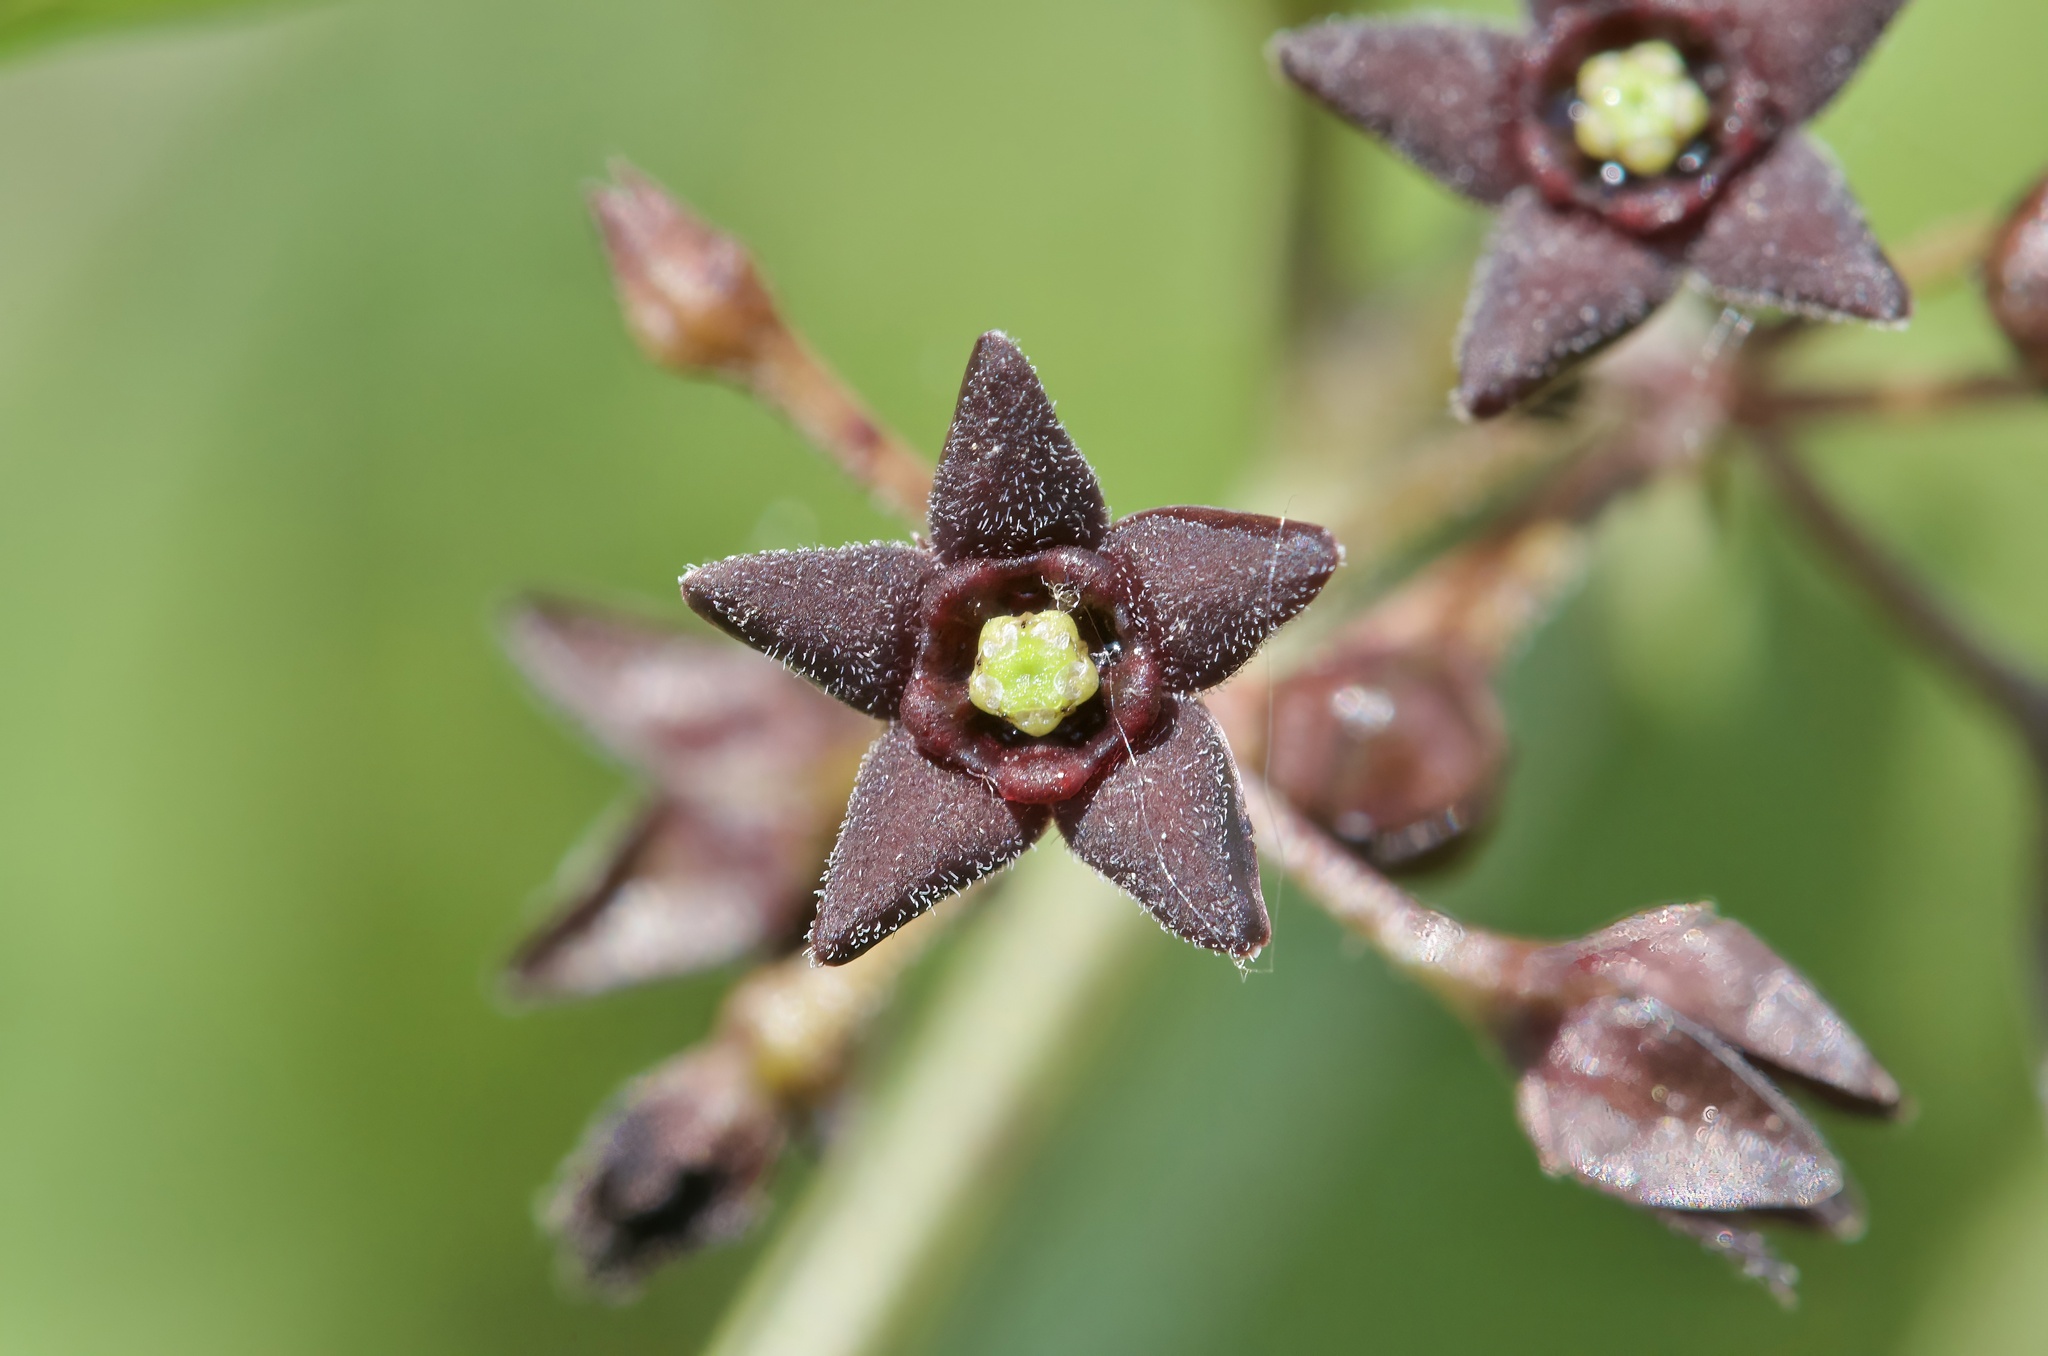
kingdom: Plantae
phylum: Tracheophyta
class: Magnoliopsida
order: Gentianales
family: Apocynaceae
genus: Vincetoxicum
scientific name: Vincetoxicum nigrum
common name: Black swallow-wort
